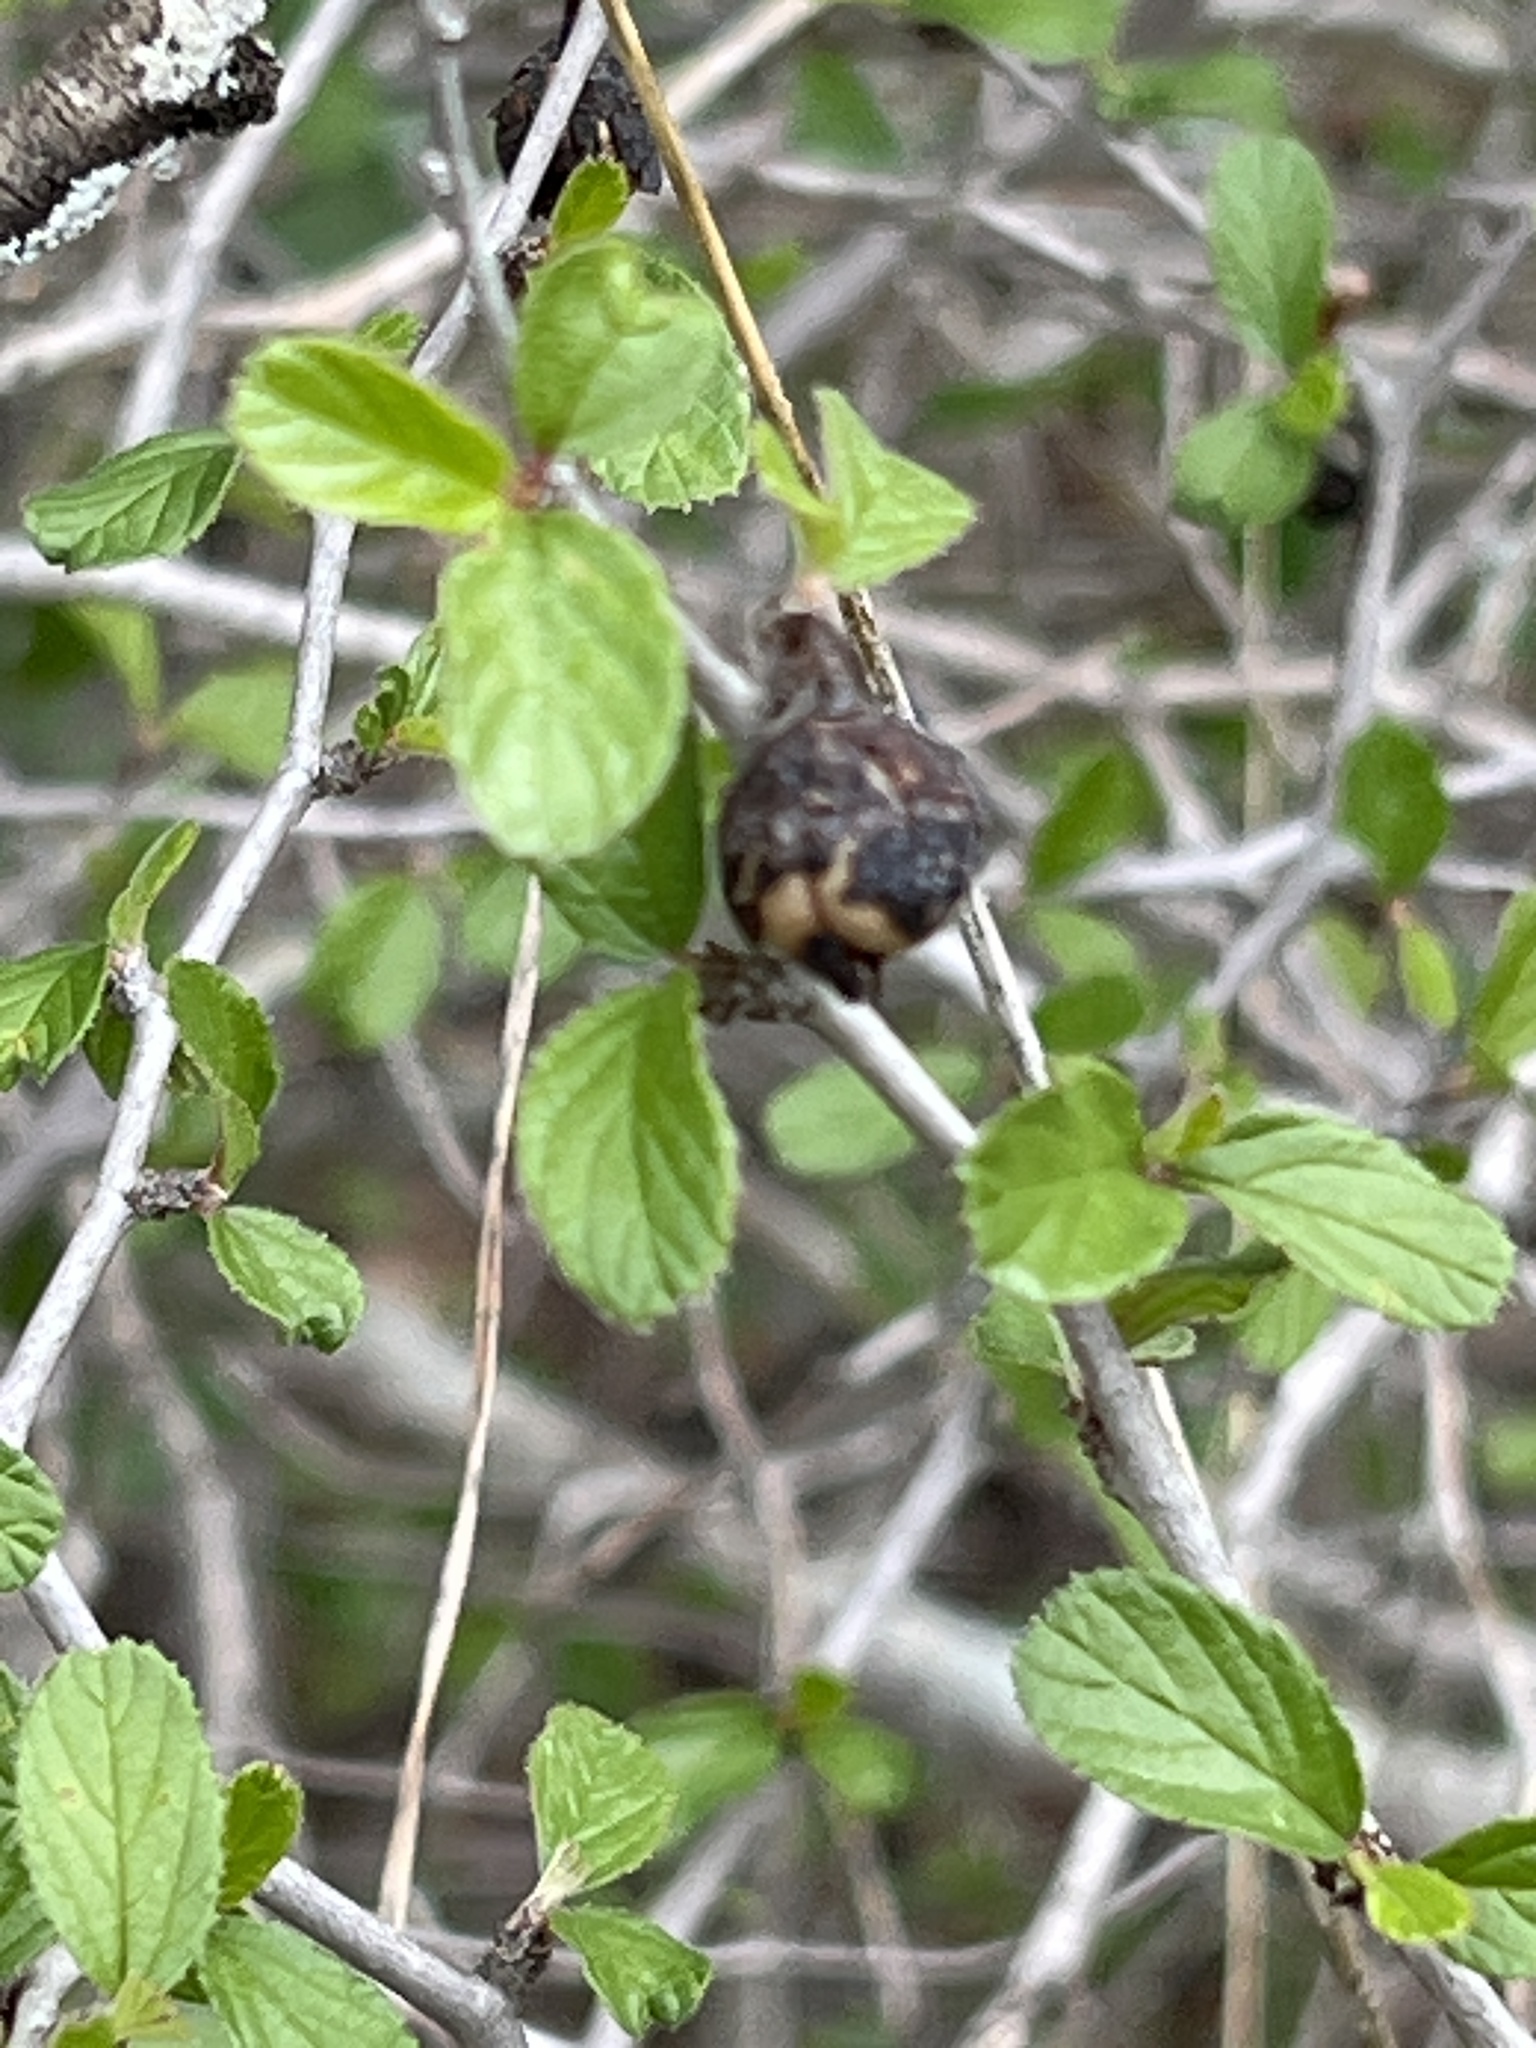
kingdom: Plantae
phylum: Tracheophyta
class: Magnoliopsida
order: Rosales
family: Rhamnaceae
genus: Colubrina
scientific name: Colubrina texensis
